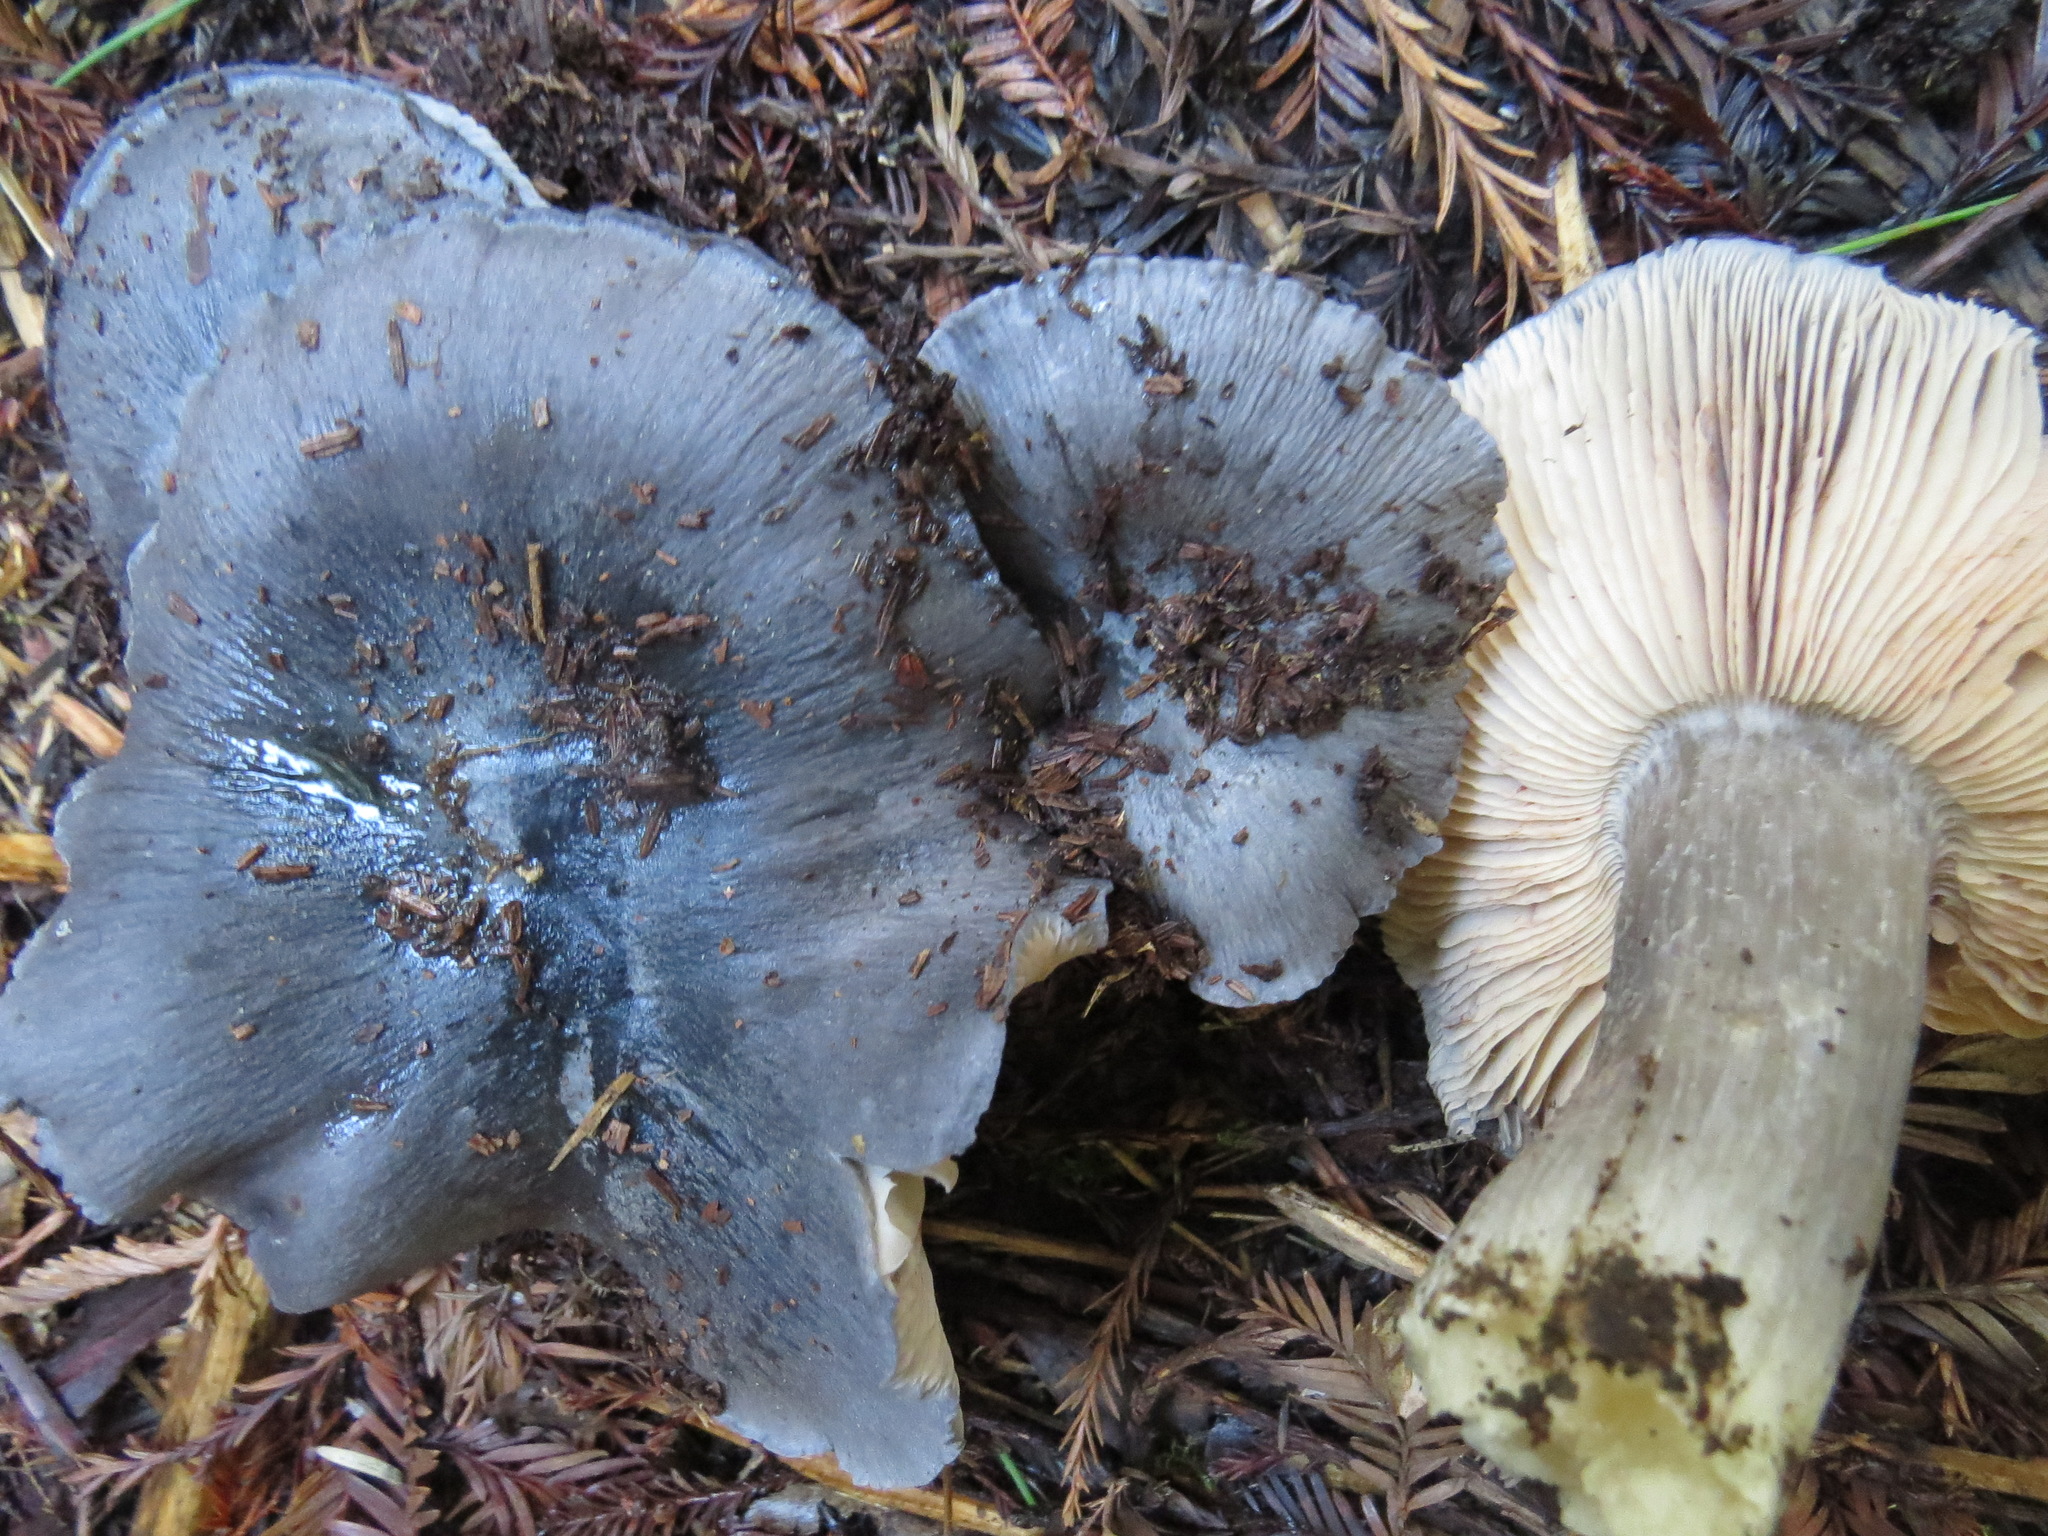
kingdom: Fungi
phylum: Basidiomycota
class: Agaricomycetes
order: Agaricales
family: Entolomataceae
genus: Entoloma
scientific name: Entoloma medianox
